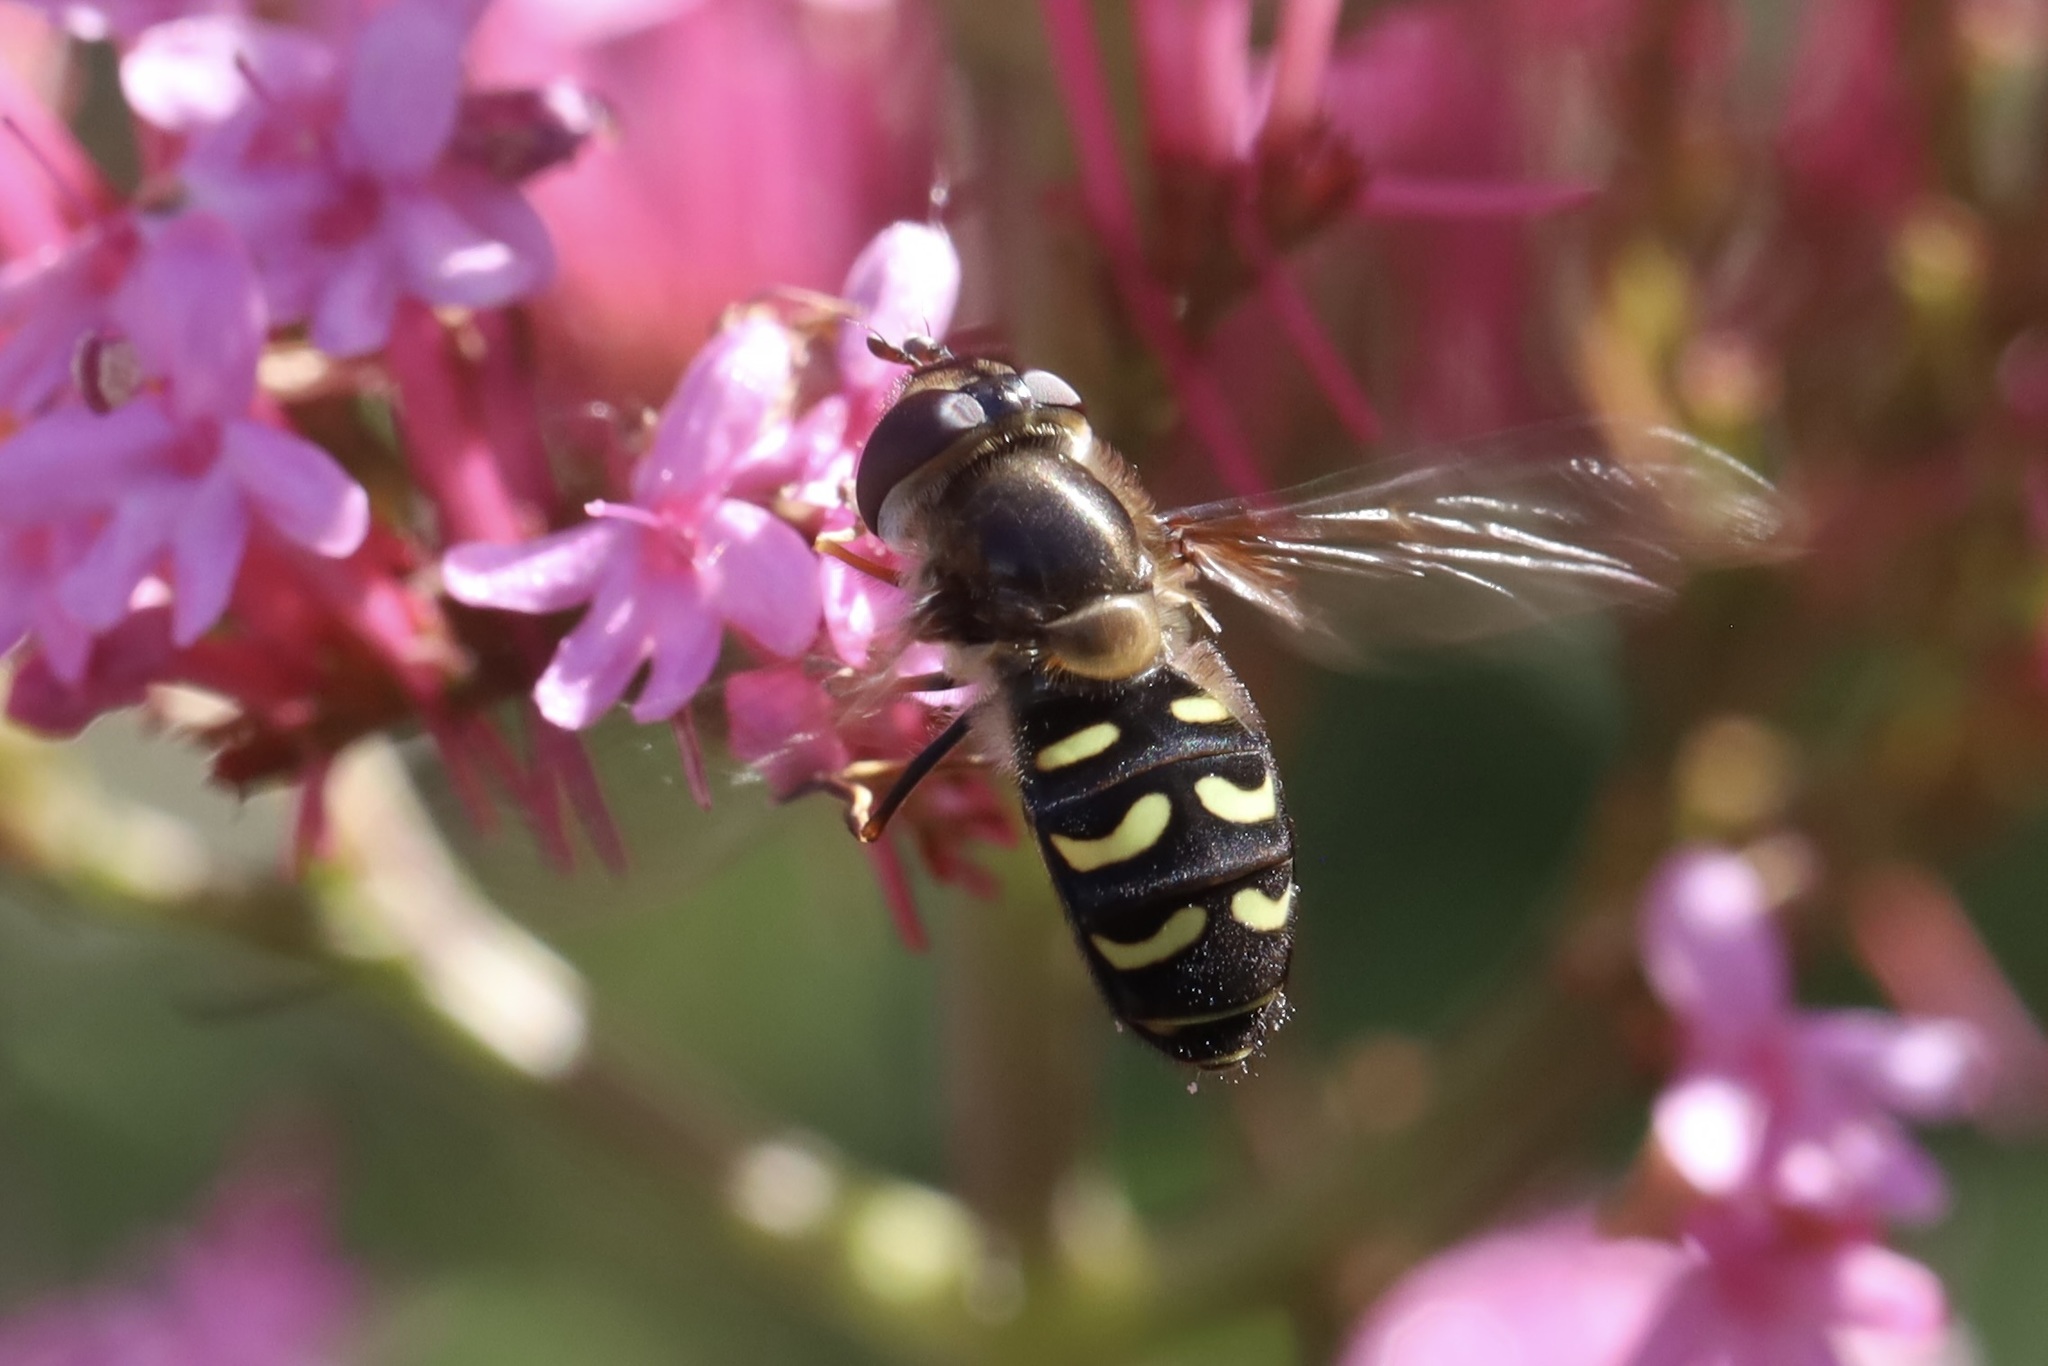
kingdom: Animalia
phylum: Arthropoda
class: Insecta
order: Diptera
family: Syrphidae
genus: Lapposyrphus
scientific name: Lapposyrphus lapponicus
